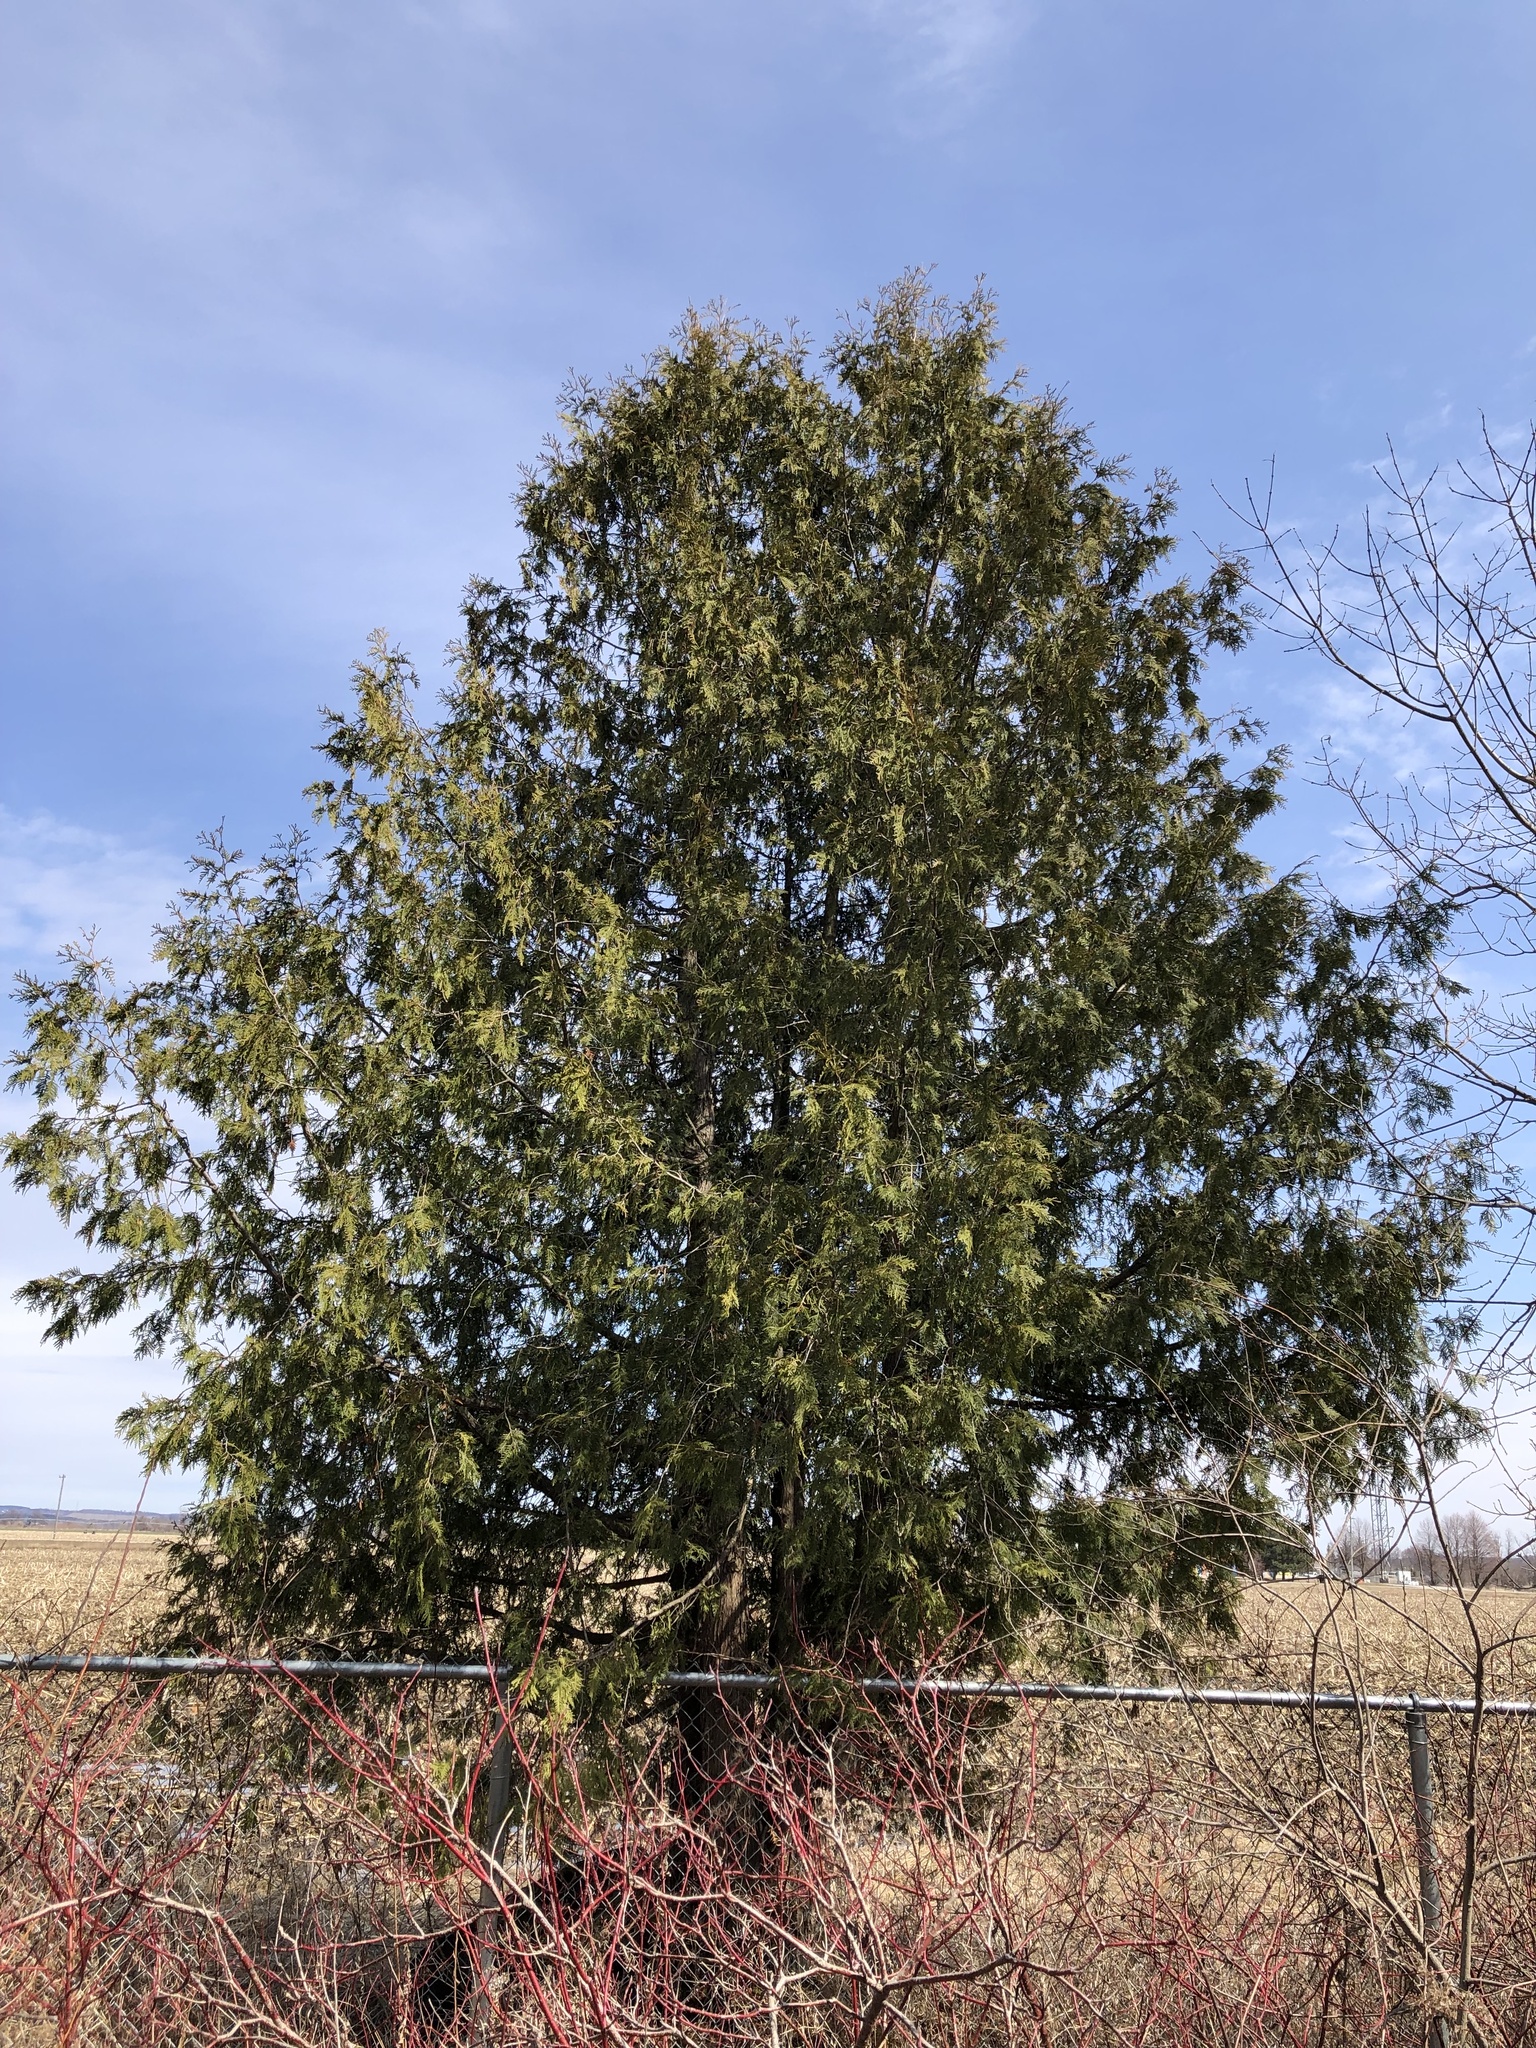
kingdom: Plantae
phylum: Tracheophyta
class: Pinopsida
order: Pinales
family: Cupressaceae
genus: Thuja
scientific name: Thuja occidentalis
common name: Northern white-cedar
